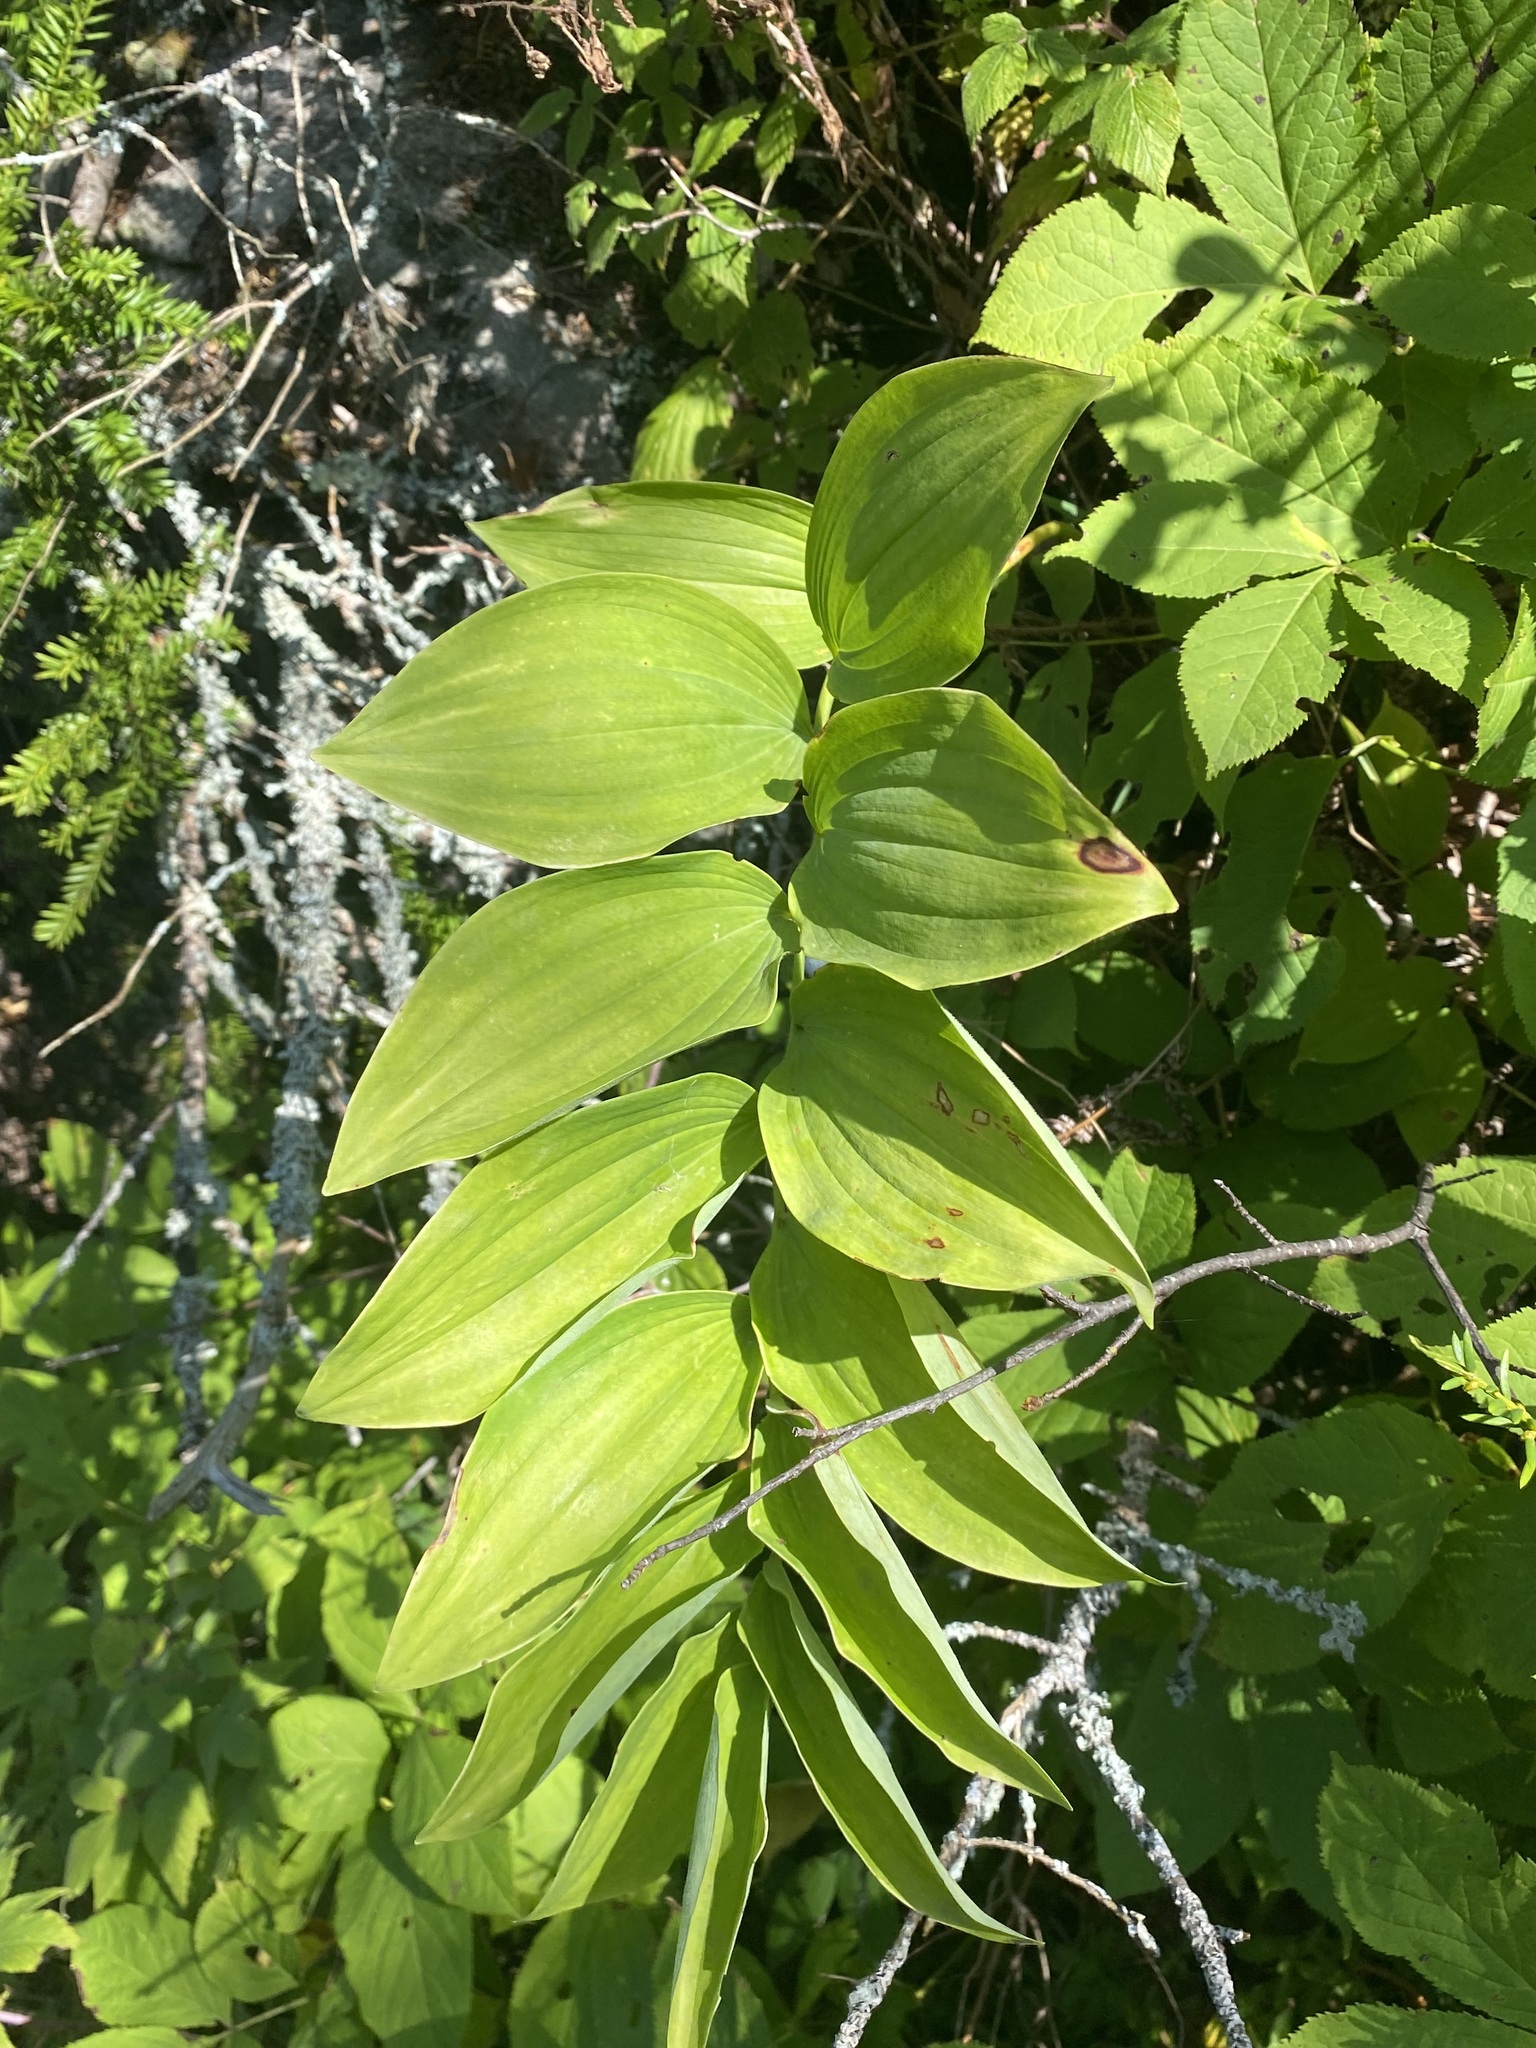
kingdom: Plantae
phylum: Tracheophyta
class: Liliopsida
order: Asparagales
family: Asparagaceae
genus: Polygonatum
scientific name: Polygonatum pubescens
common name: Downy solomon's seal
